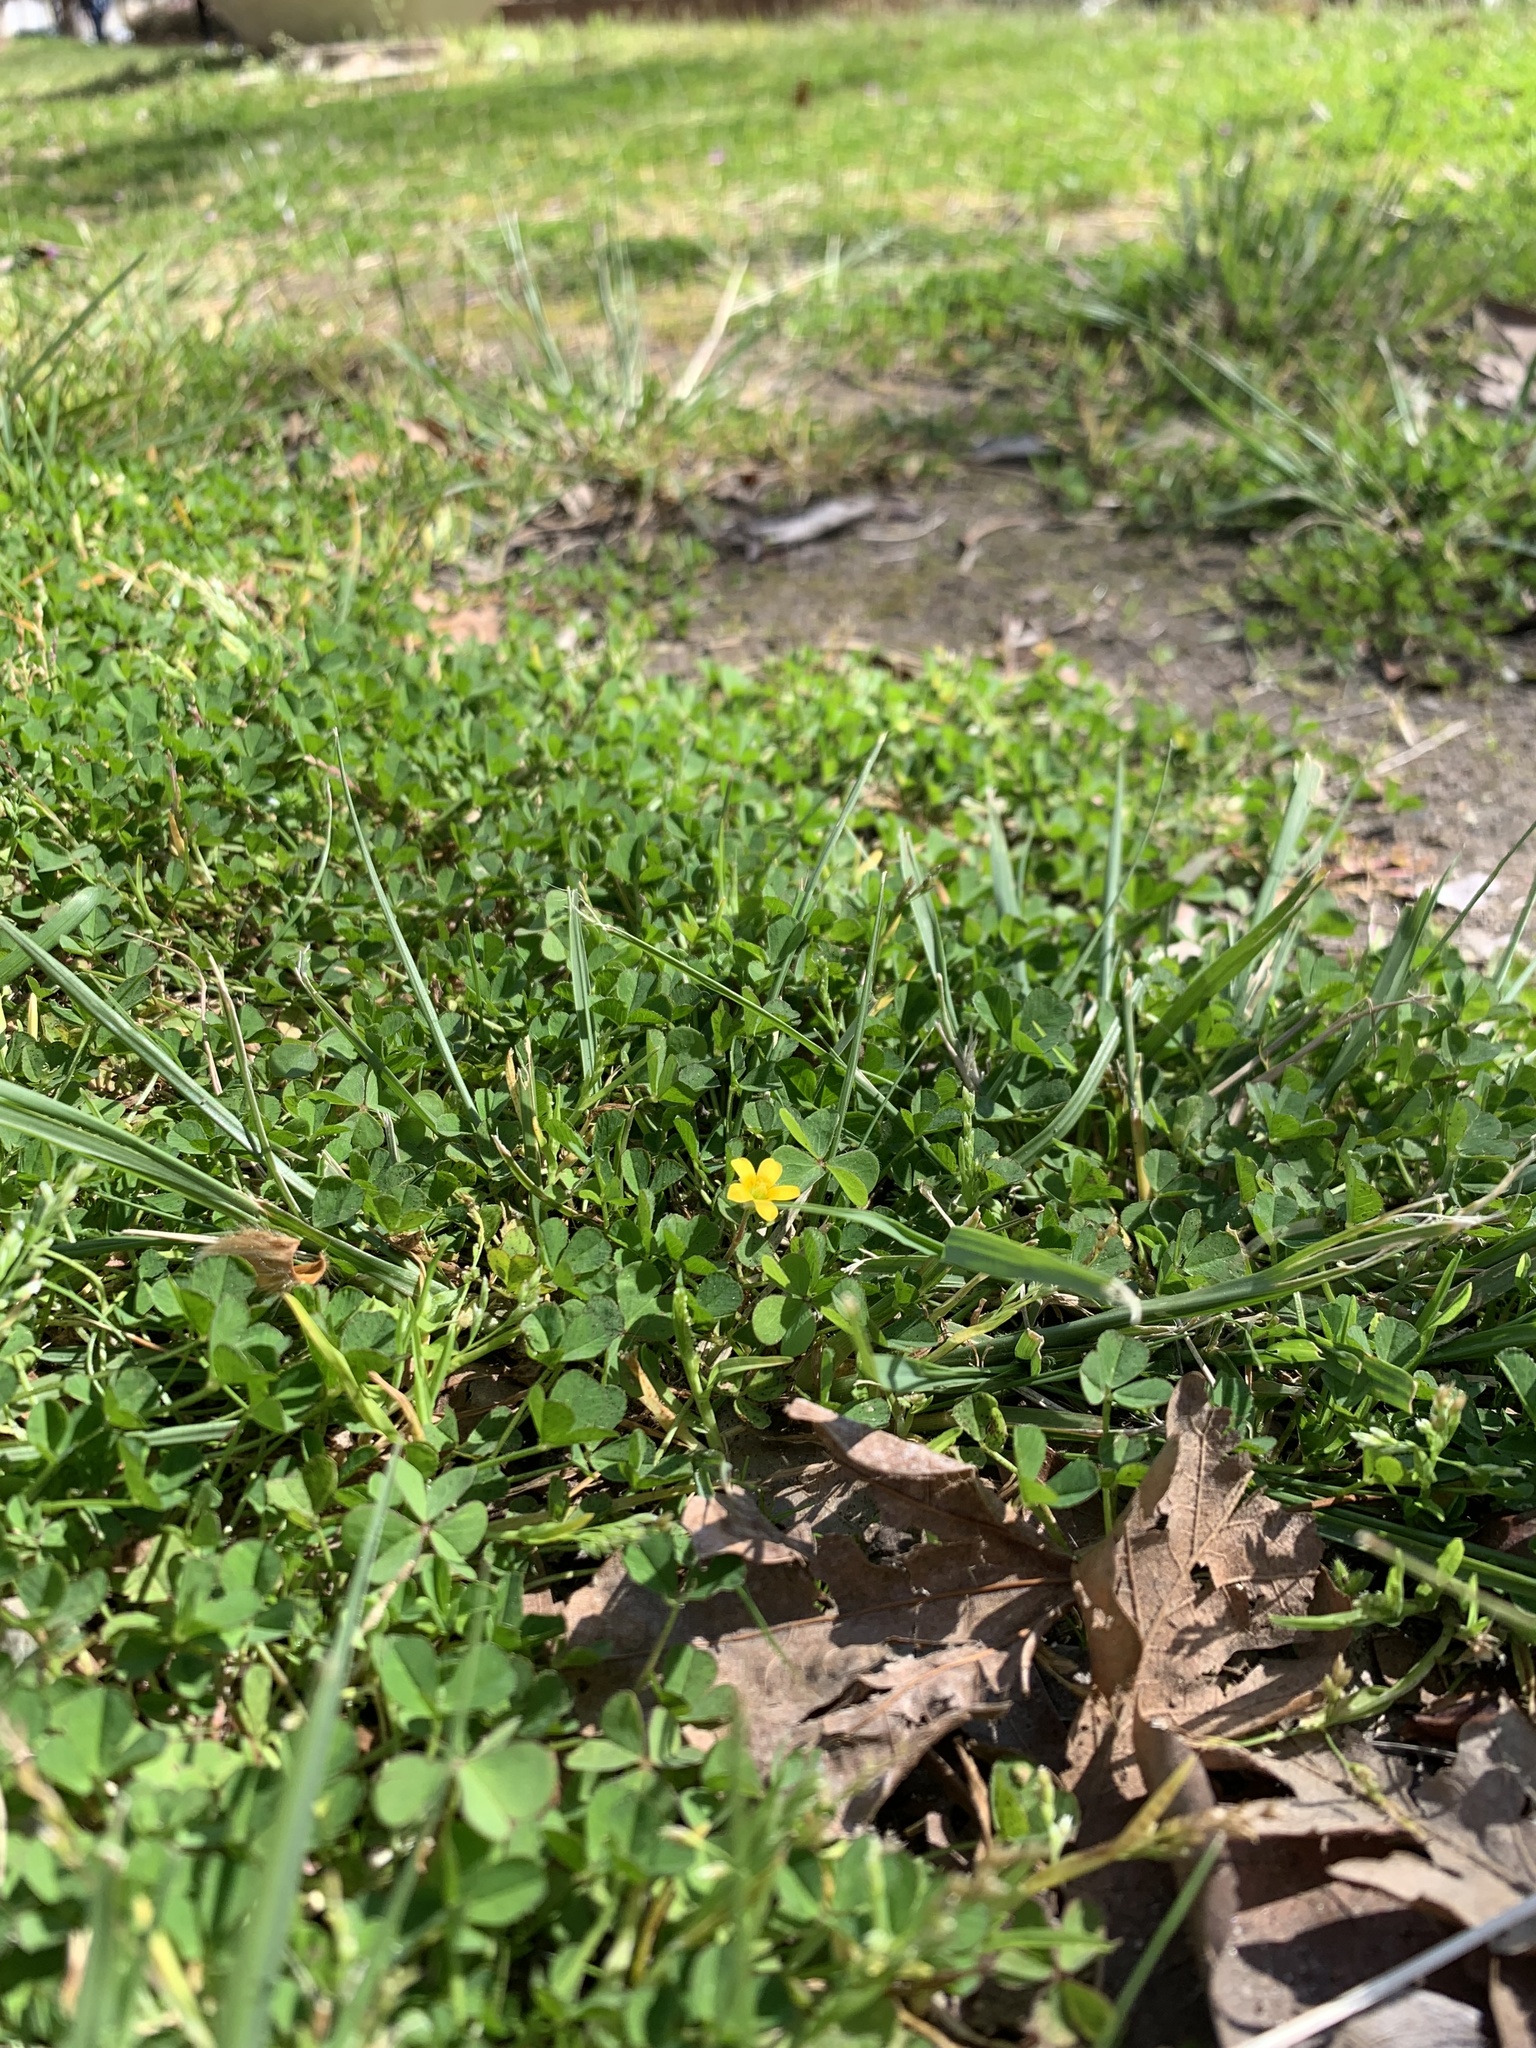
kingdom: Plantae
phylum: Tracheophyta
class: Magnoliopsida
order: Oxalidales
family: Oxalidaceae
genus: Oxalis
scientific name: Oxalis corniculata
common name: Procumbent yellow-sorrel
